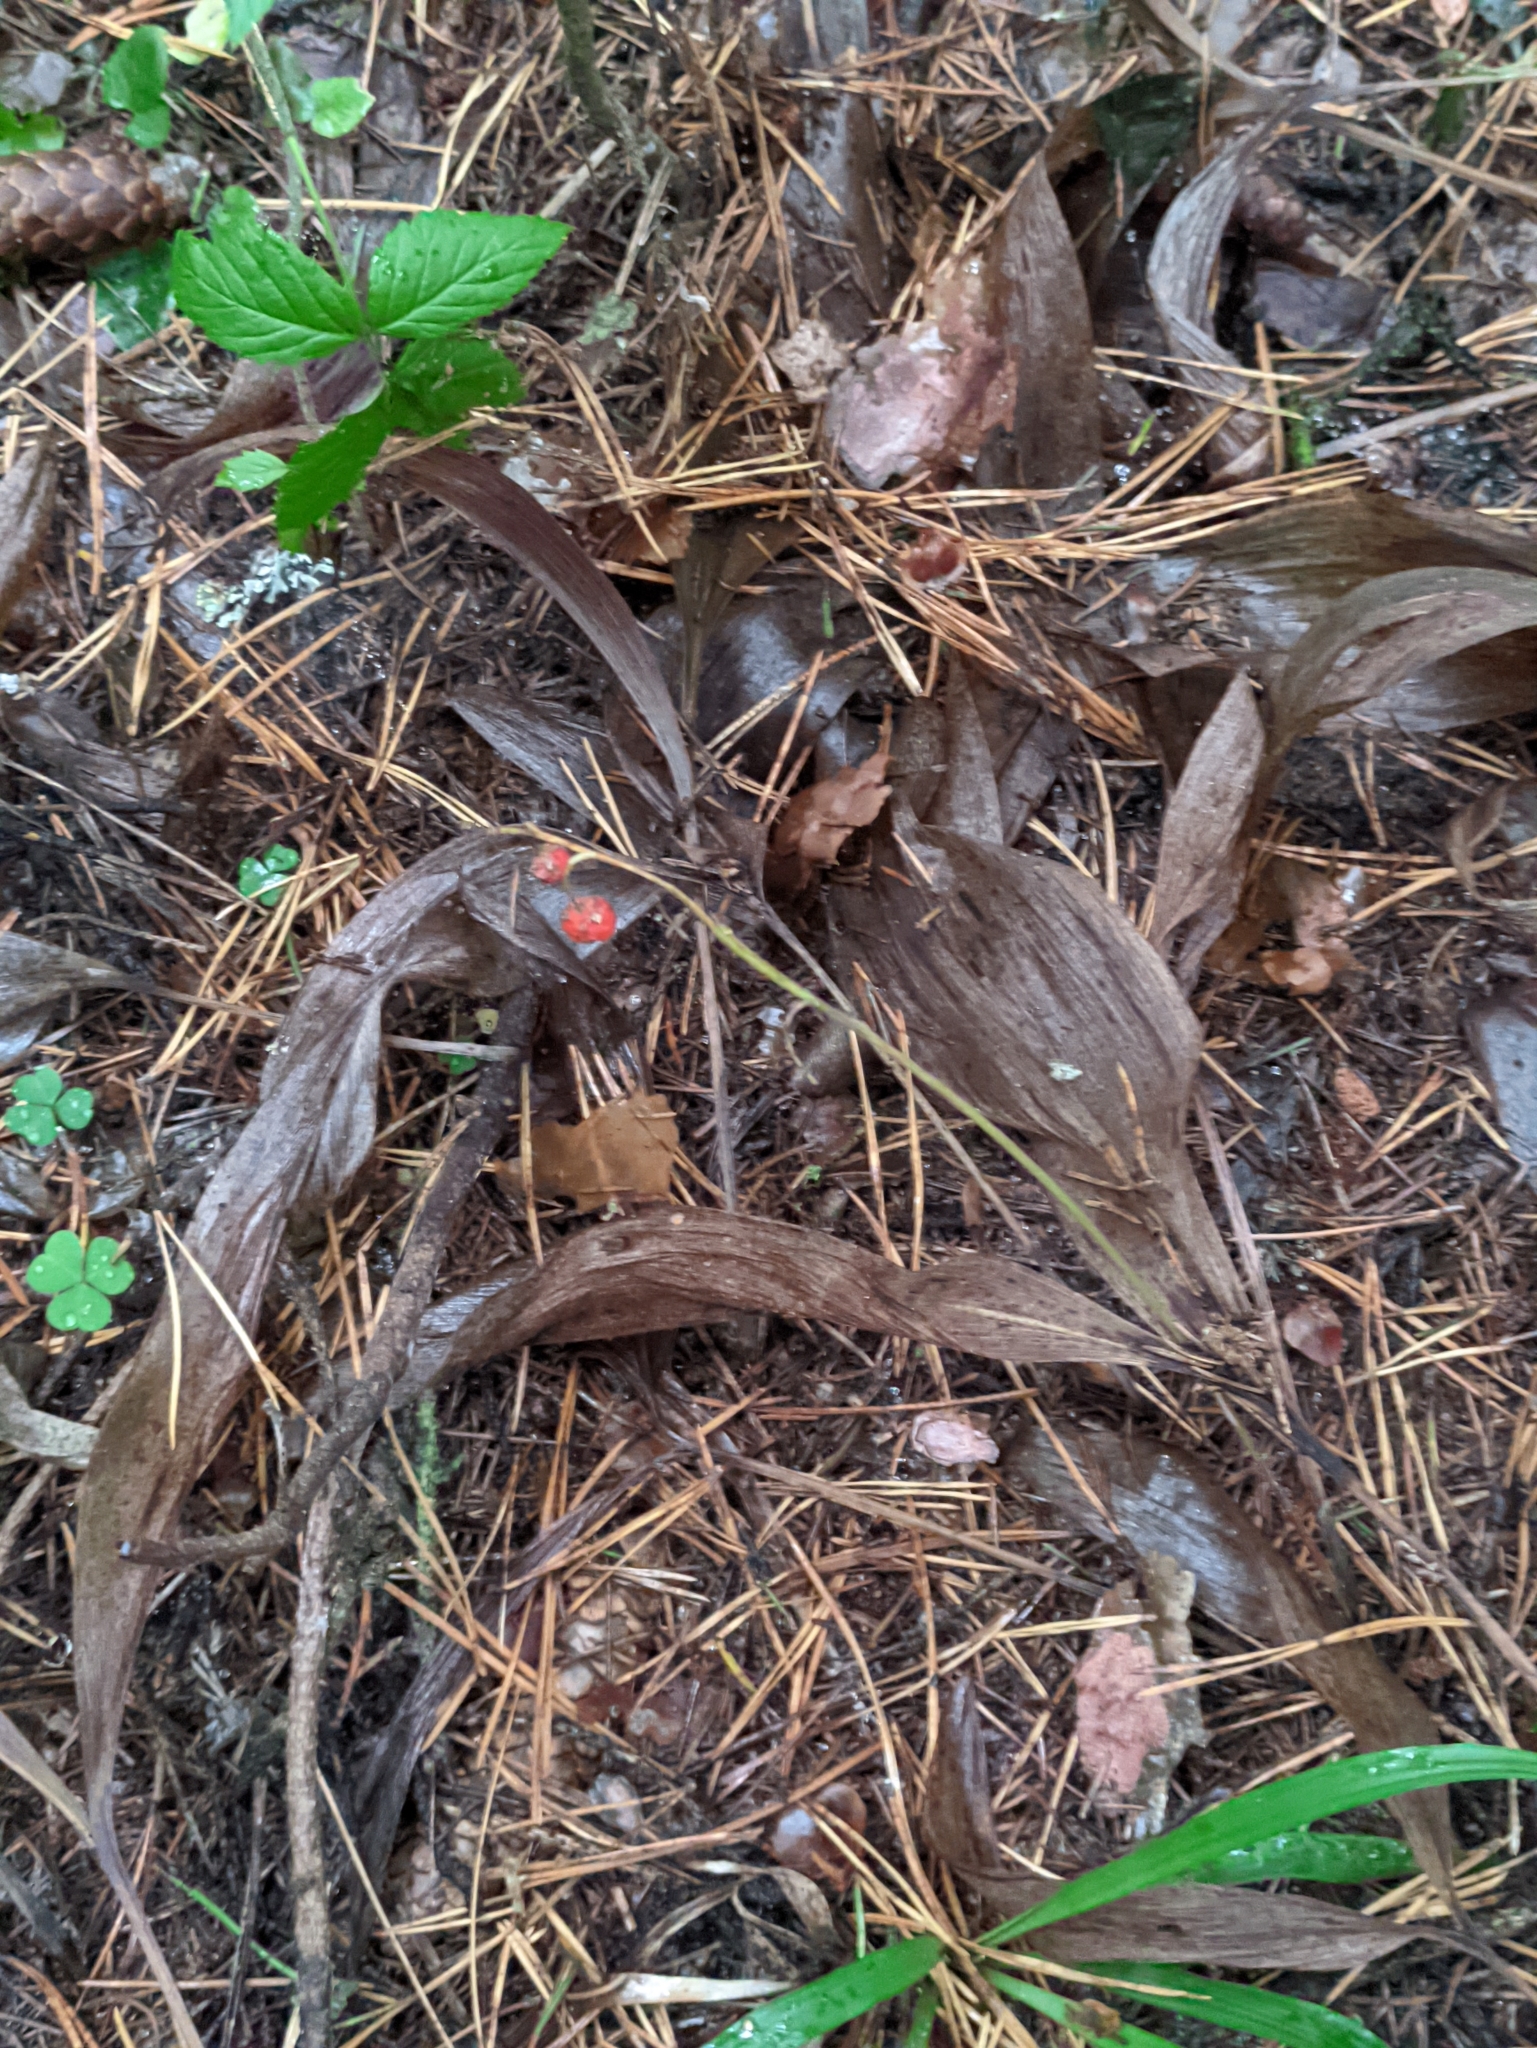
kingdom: Plantae
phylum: Tracheophyta
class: Liliopsida
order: Asparagales
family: Asparagaceae
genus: Convallaria
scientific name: Convallaria majalis
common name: Lily-of-the-valley
